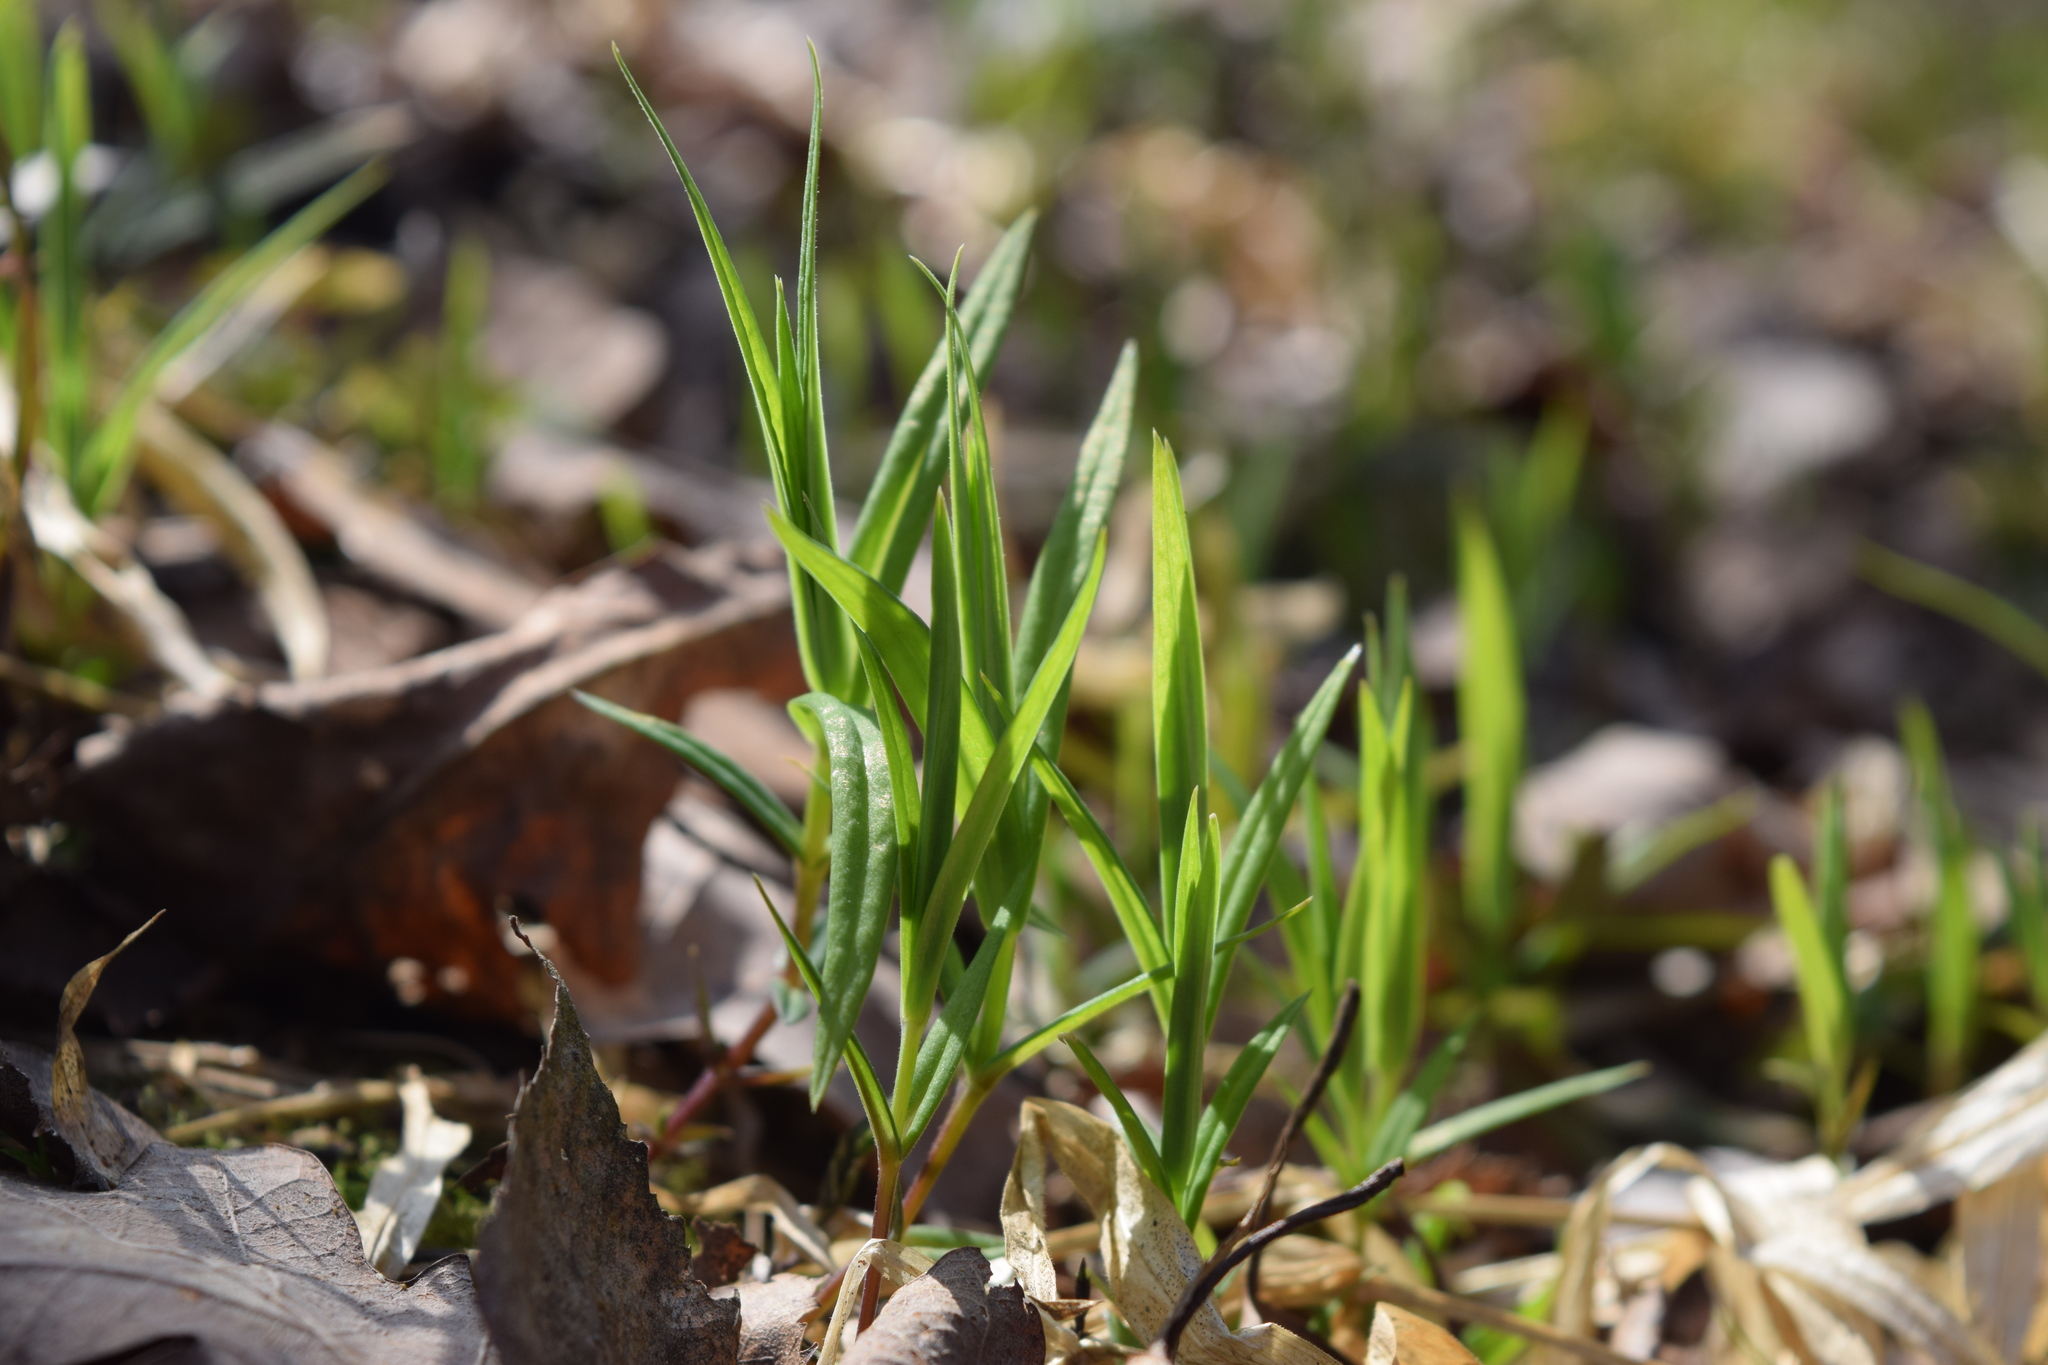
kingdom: Plantae
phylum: Tracheophyta
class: Magnoliopsida
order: Caryophyllales
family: Caryophyllaceae
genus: Rabelera
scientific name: Rabelera holostea
